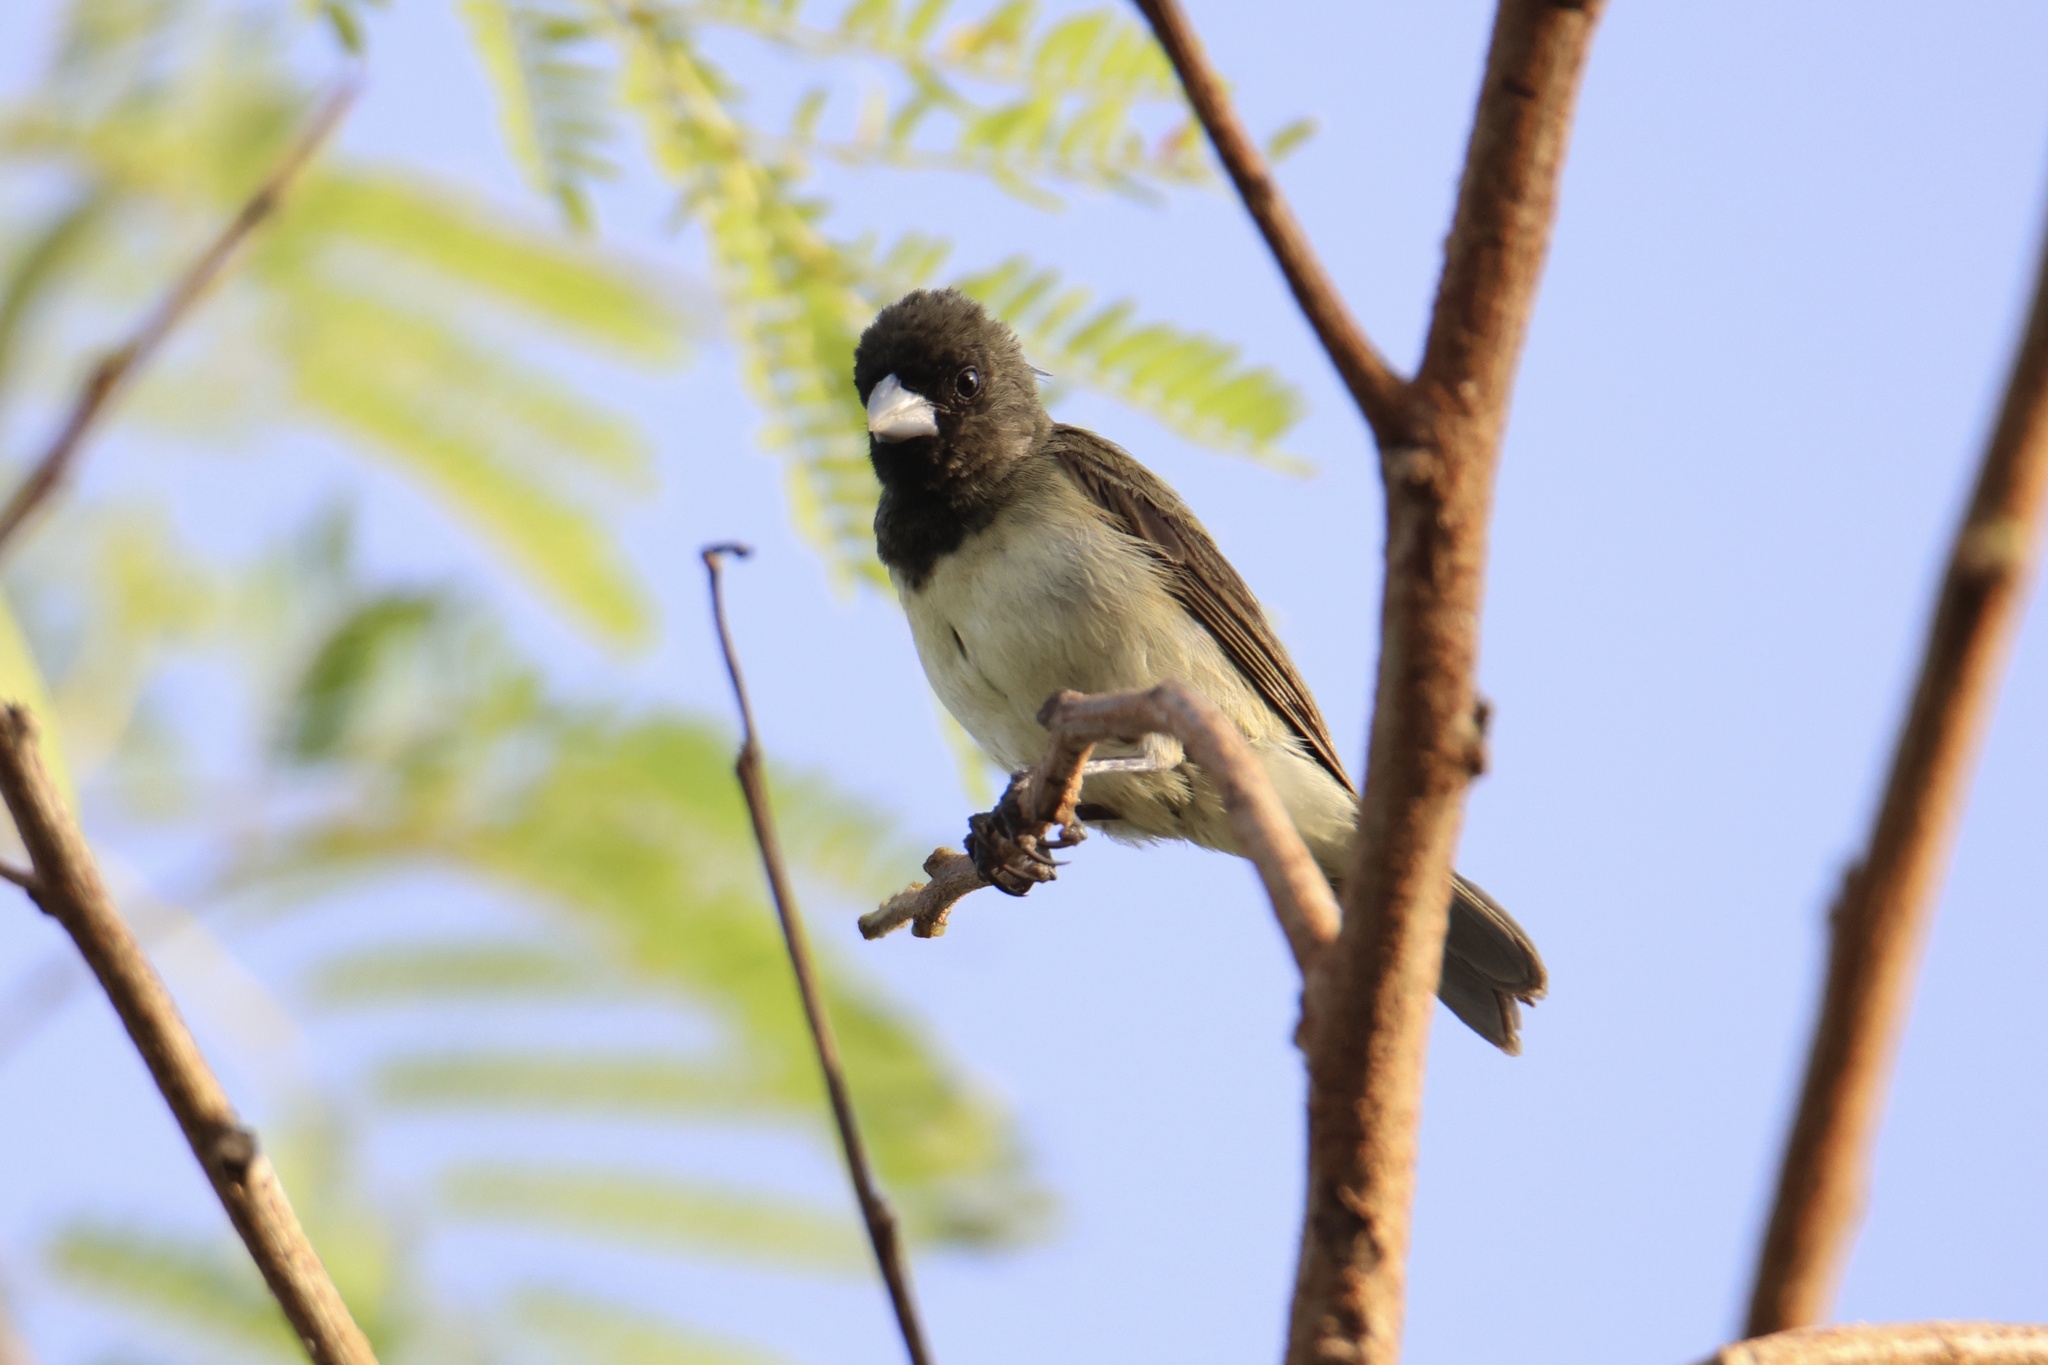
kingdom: Animalia
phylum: Chordata
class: Aves
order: Passeriformes
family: Thraupidae
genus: Sporophila
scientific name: Sporophila nigricollis
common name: Yellow-bellied seedeater
